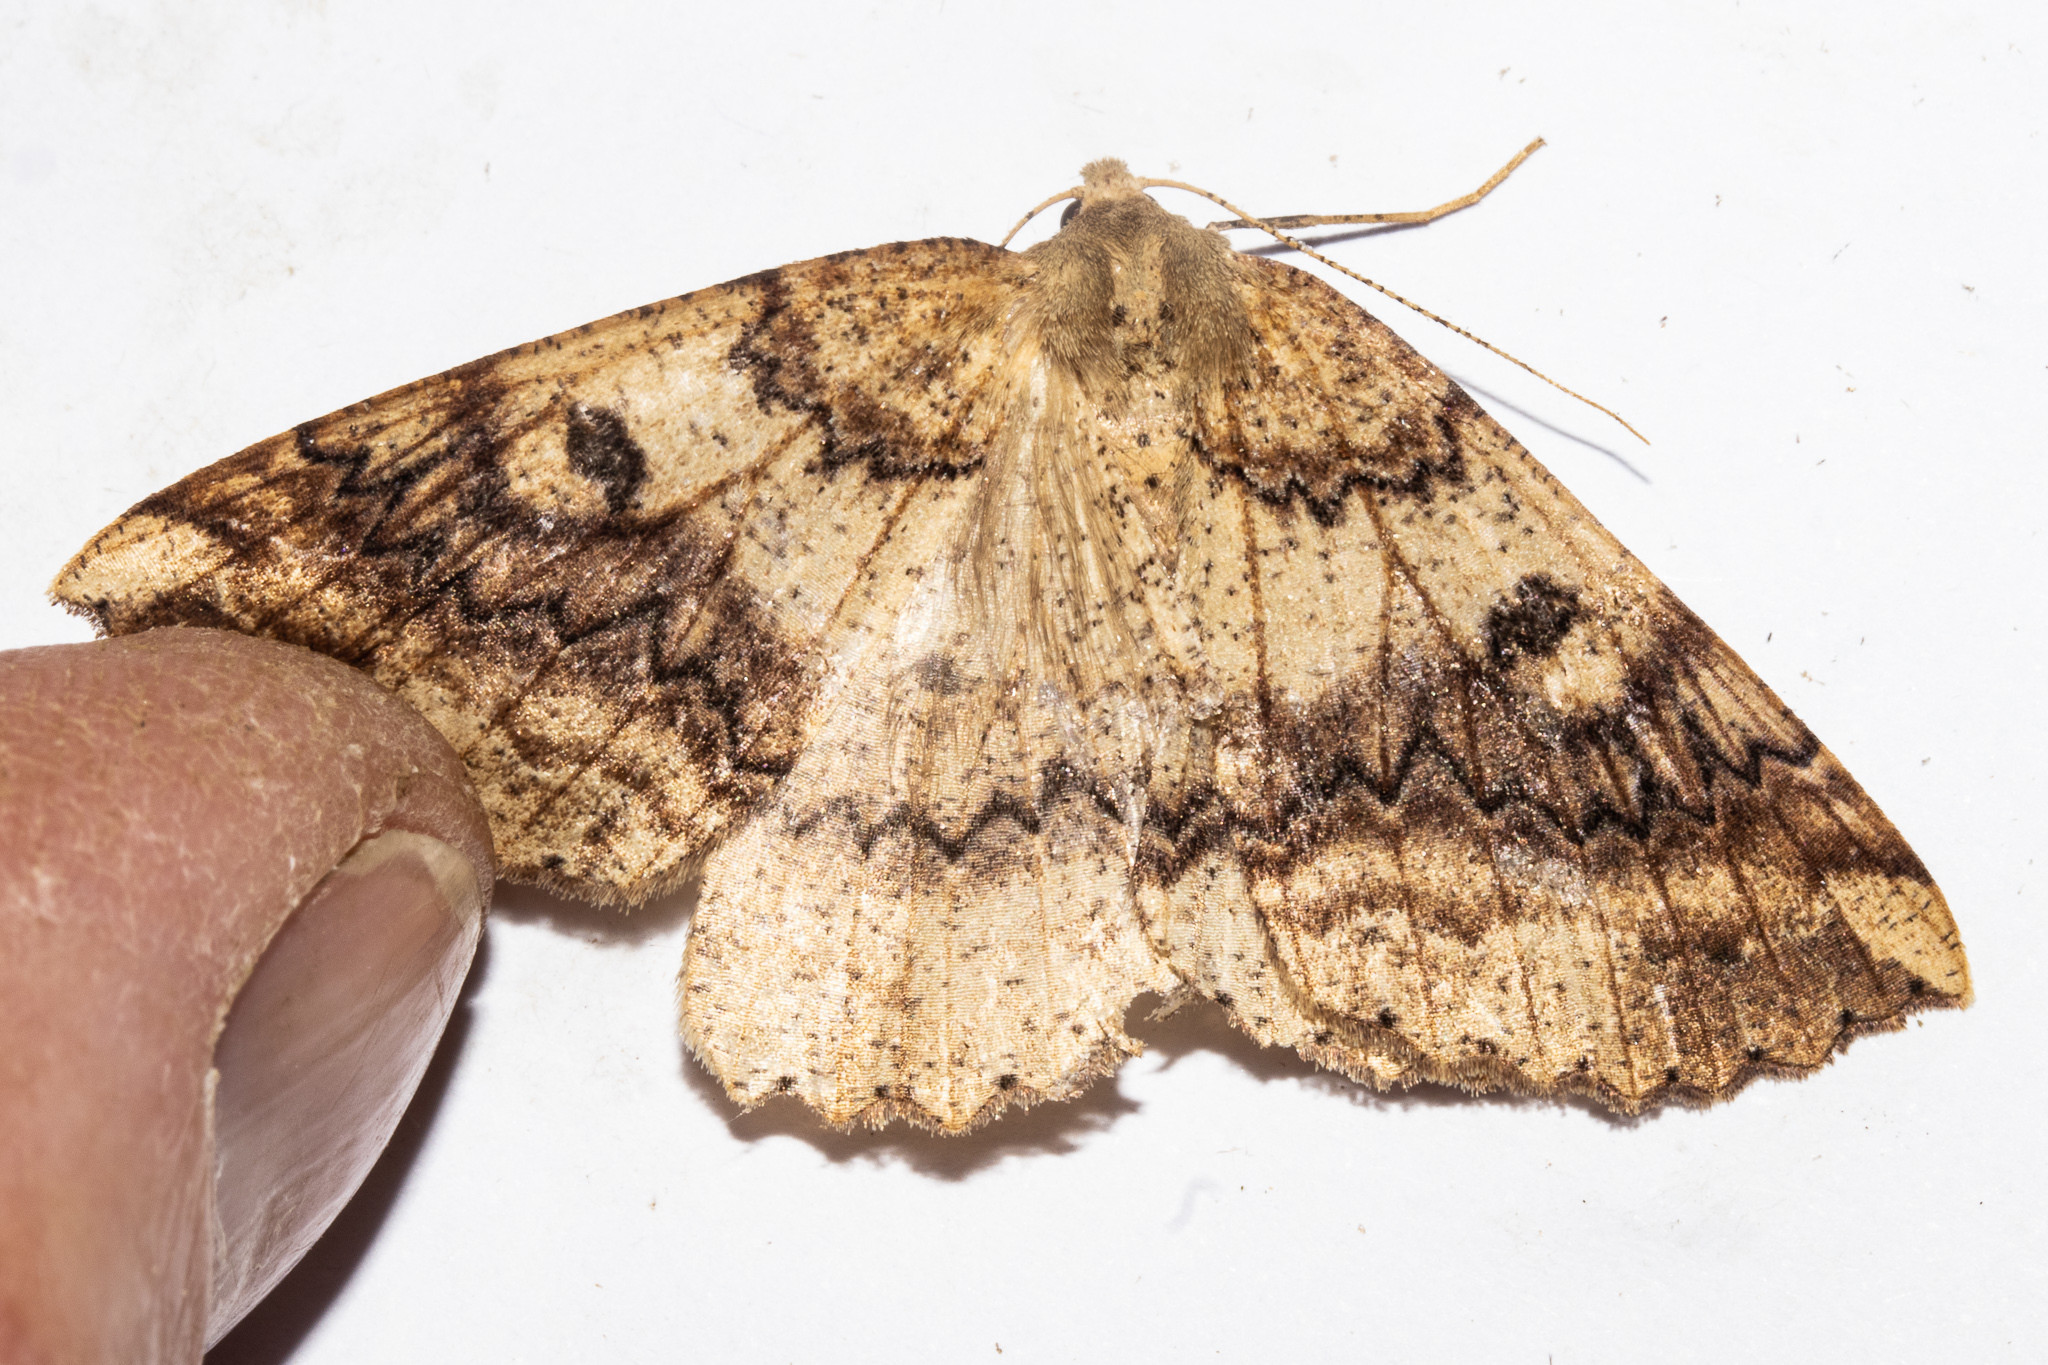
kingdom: Animalia
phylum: Arthropoda
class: Insecta
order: Lepidoptera
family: Geometridae
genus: Cleora
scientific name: Cleora scriptaria
